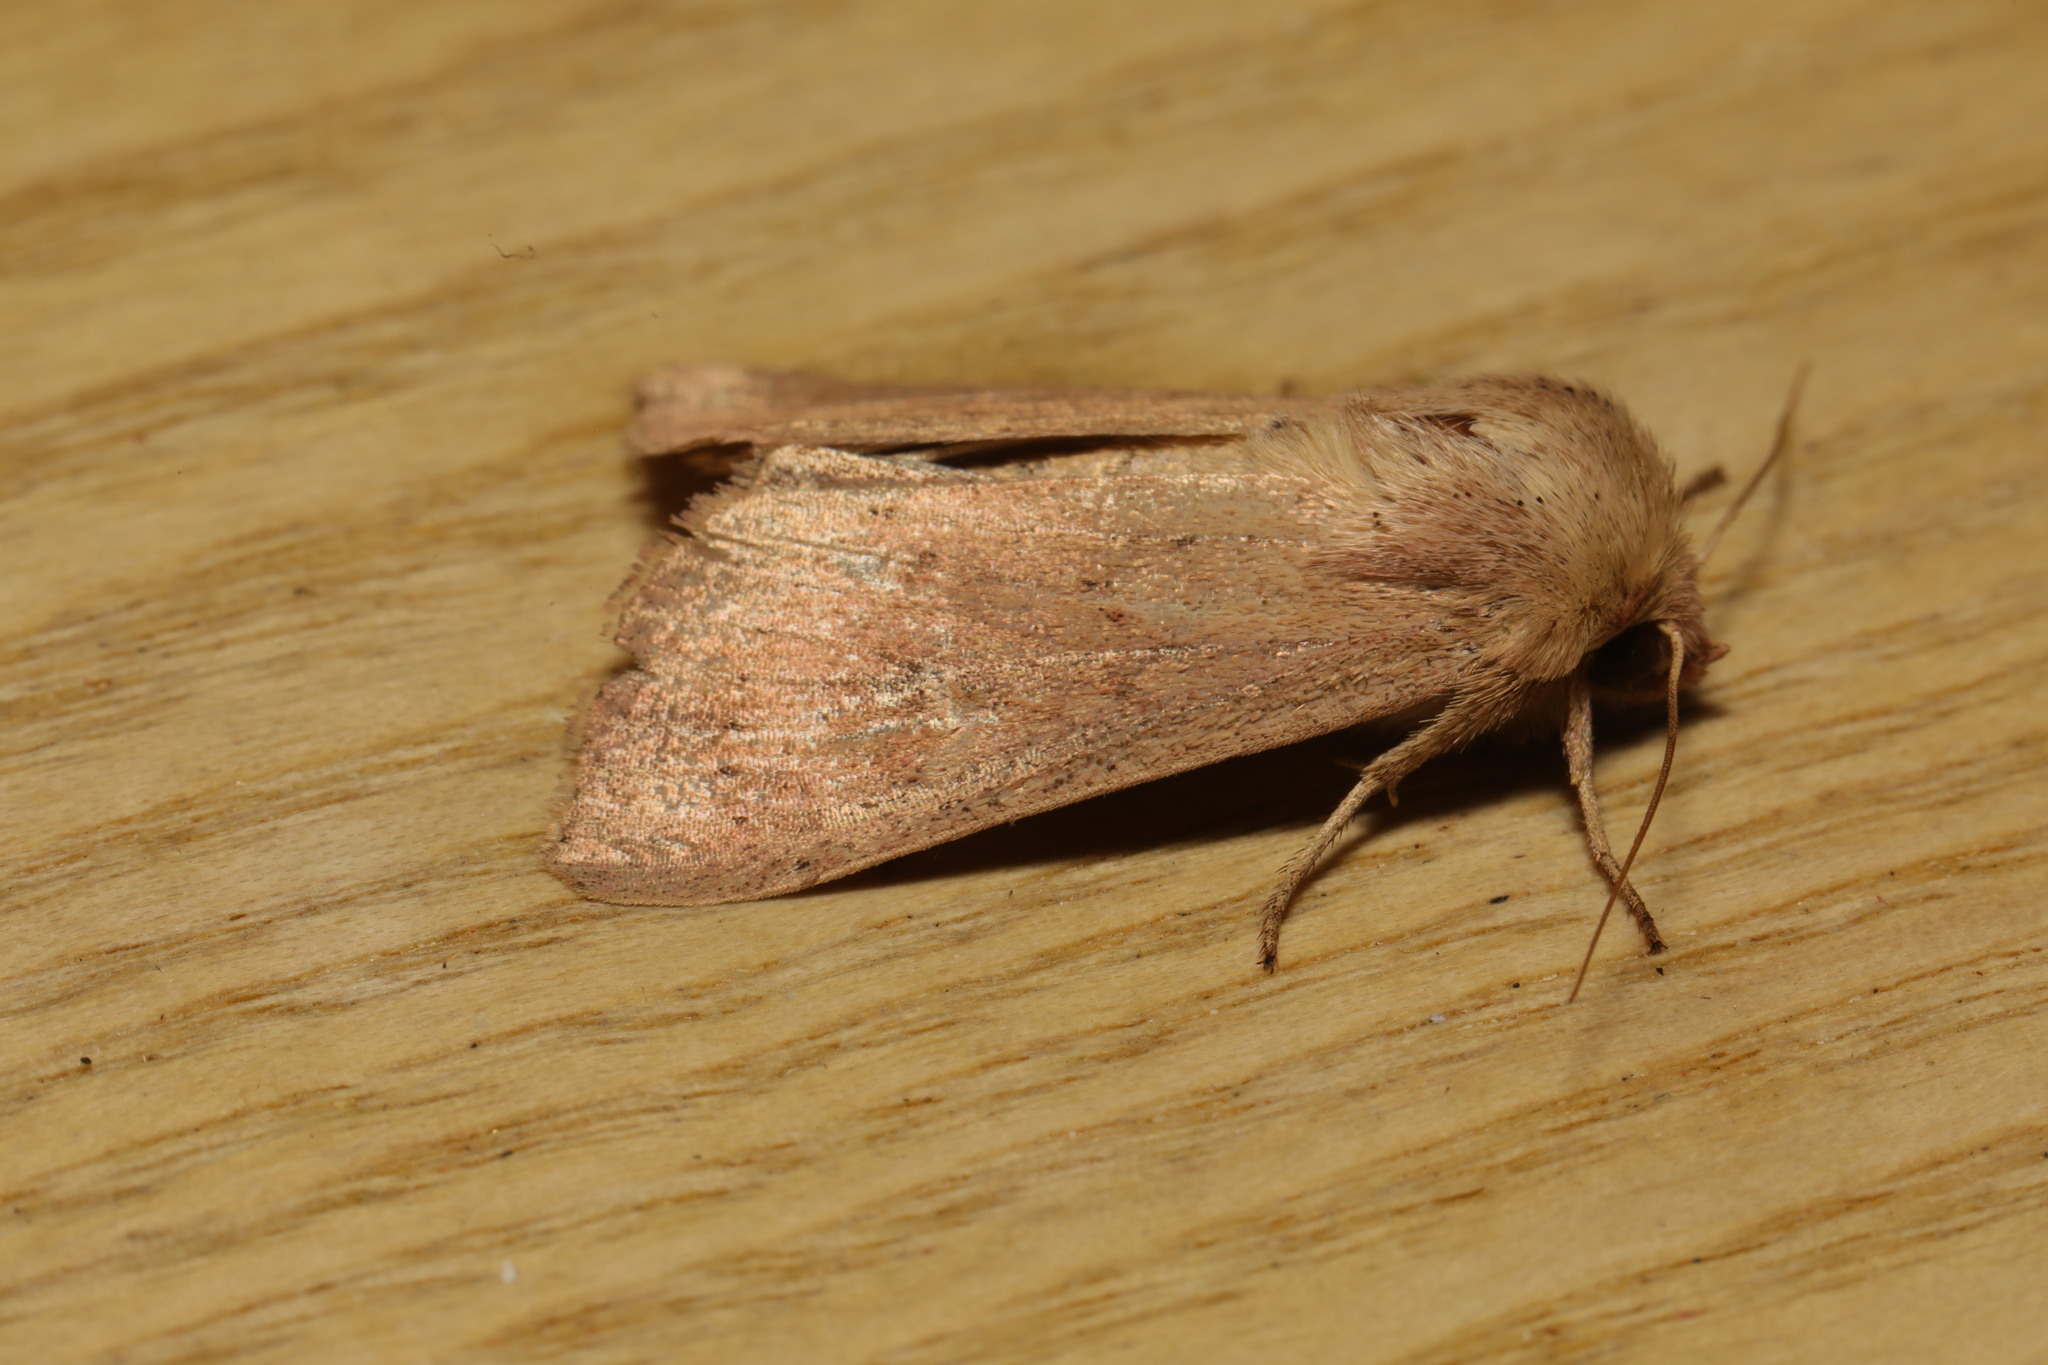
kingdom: Animalia
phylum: Arthropoda
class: Insecta
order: Lepidoptera
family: Noctuidae
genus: Mythimna
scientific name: Mythimna ferrago
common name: Clay
